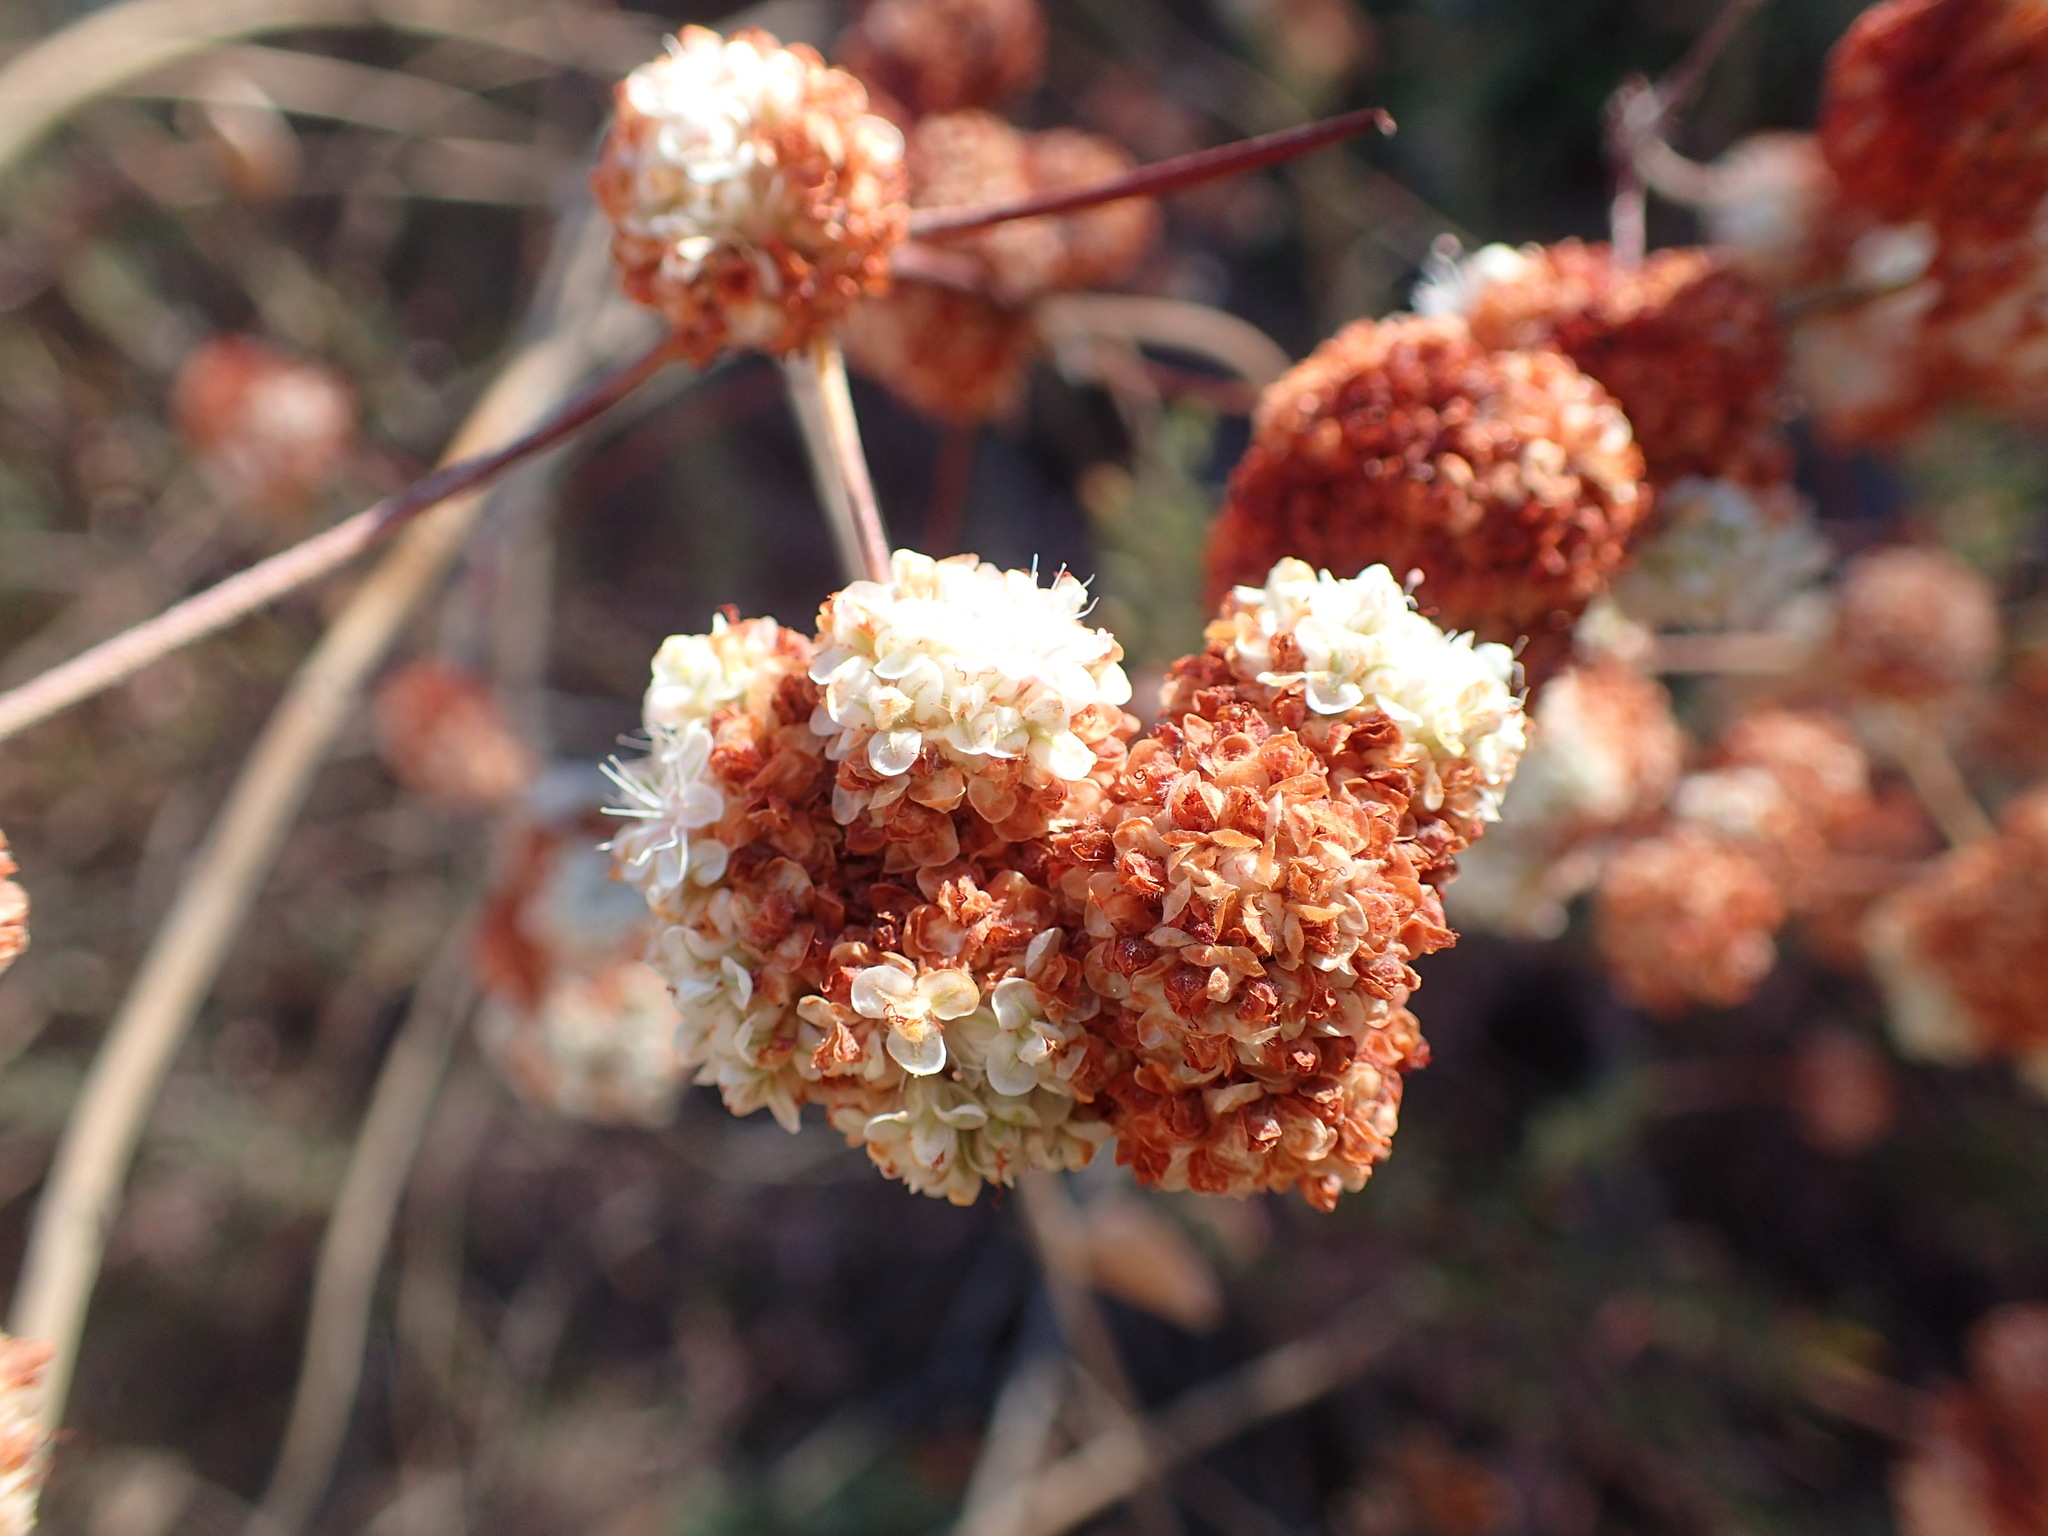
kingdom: Plantae
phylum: Tracheophyta
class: Magnoliopsida
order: Caryophyllales
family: Polygonaceae
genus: Eriogonum
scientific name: Eriogonum fasciculatum
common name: California wild buckwheat
